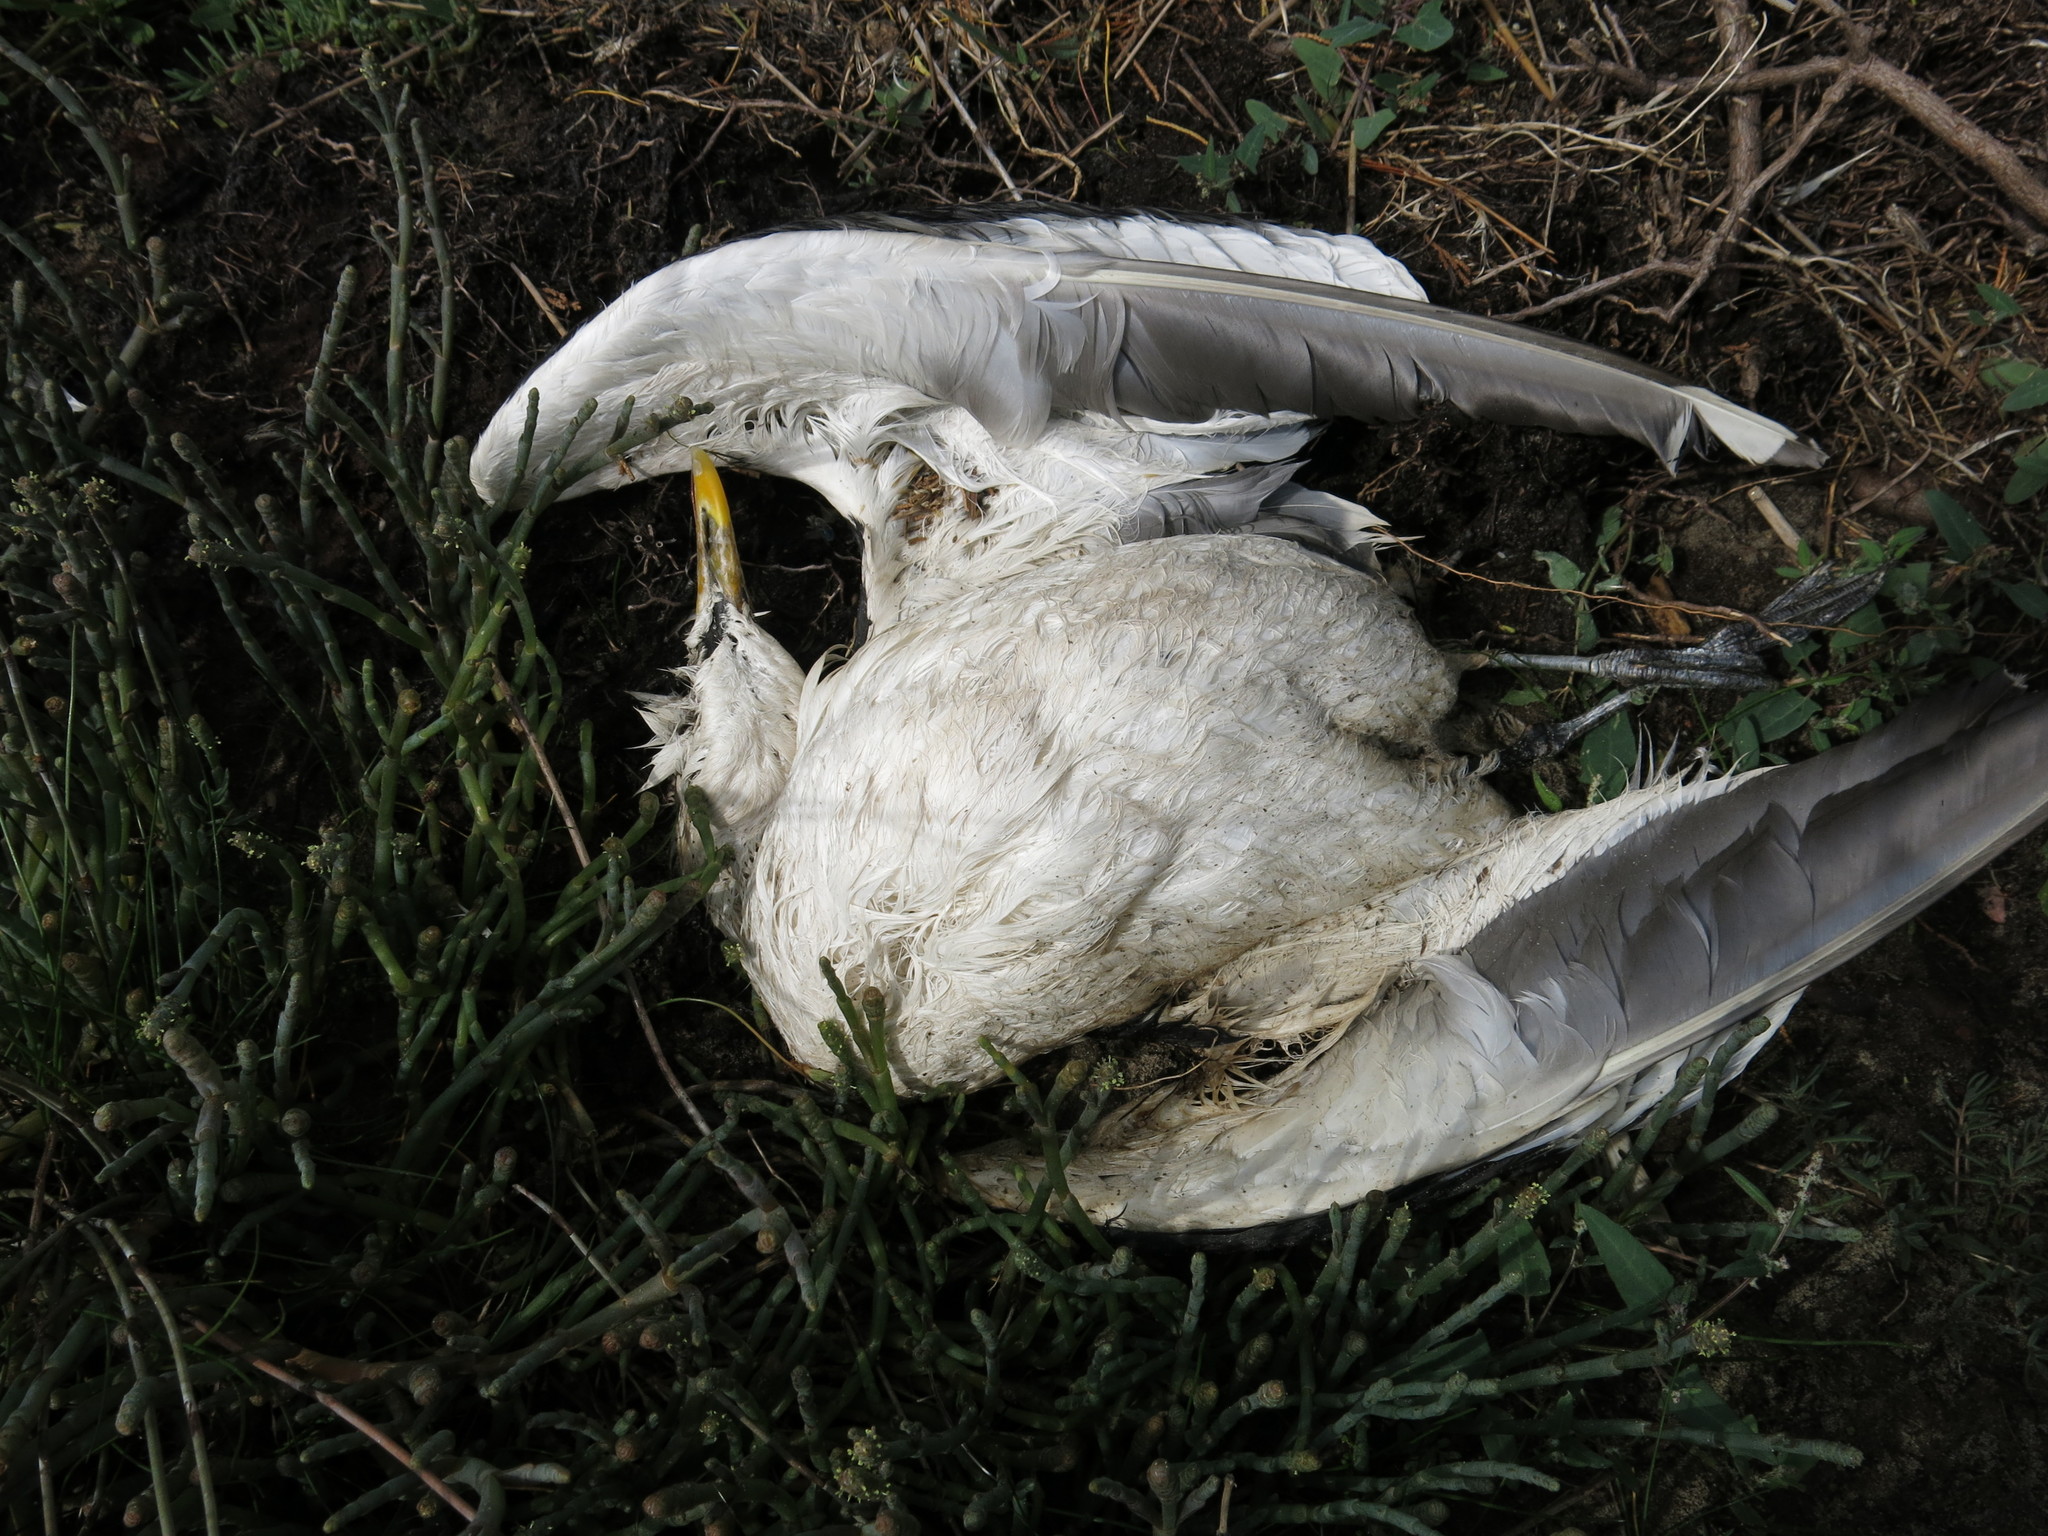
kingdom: Animalia
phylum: Chordata
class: Aves
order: Charadriiformes
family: Laridae
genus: Larus
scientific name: Larus dominicanus
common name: Kelp gull
